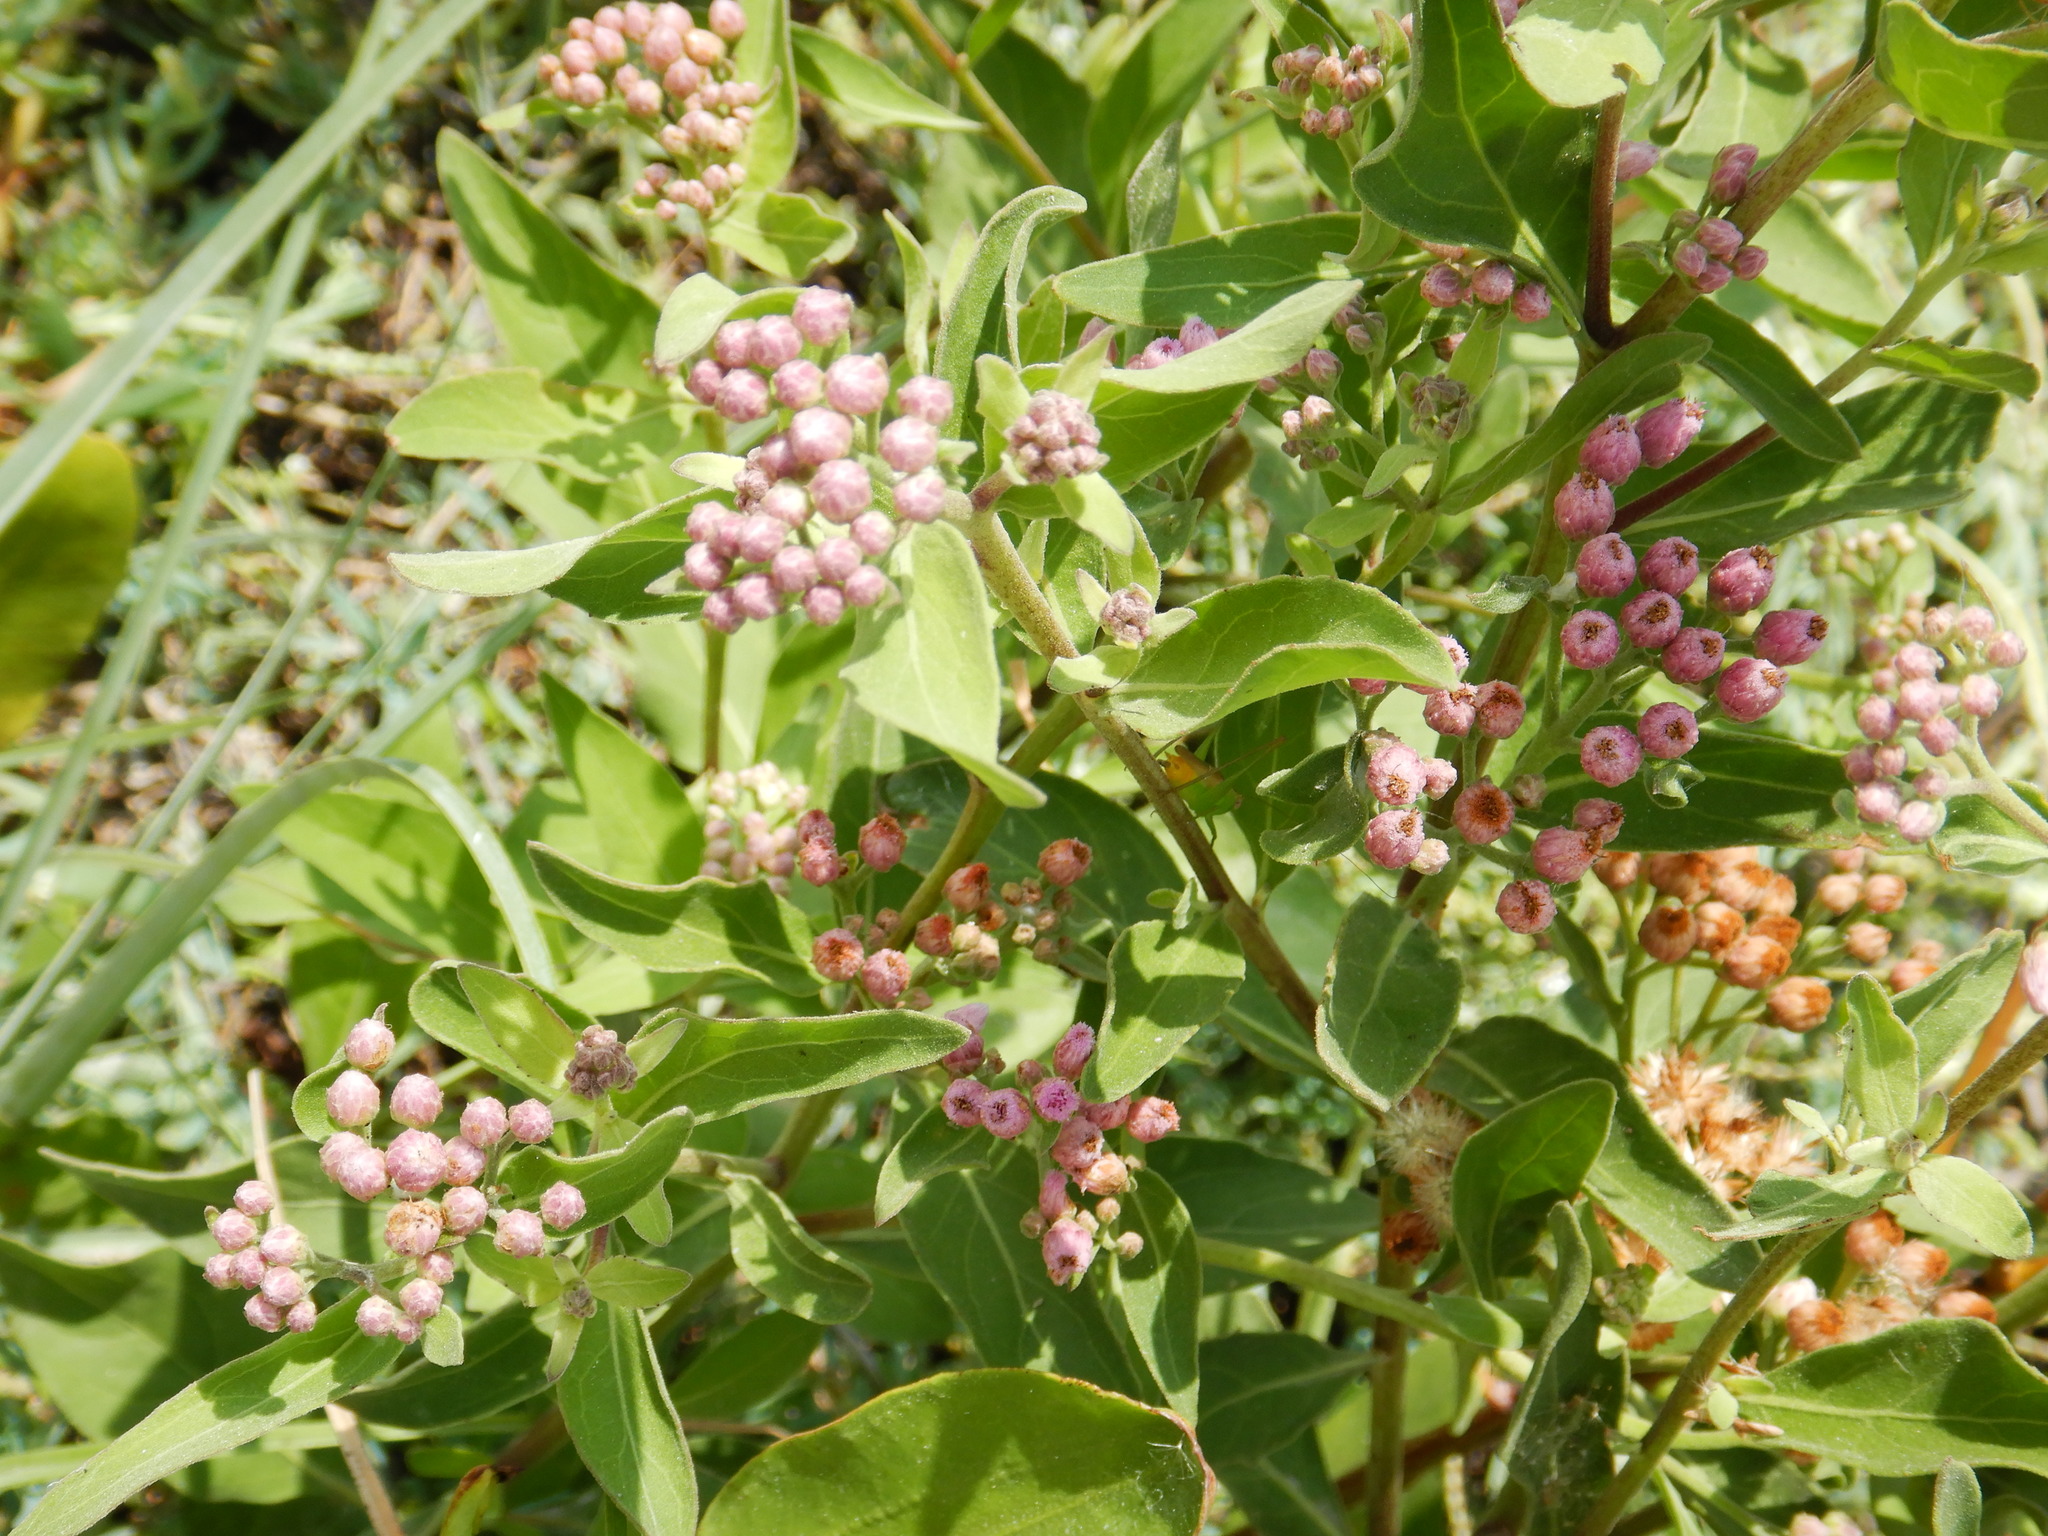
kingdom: Plantae
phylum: Tracheophyta
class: Magnoliopsida
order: Asterales
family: Asteraceae
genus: Pluchea
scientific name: Pluchea carolinensis
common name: Marsh fleabane
